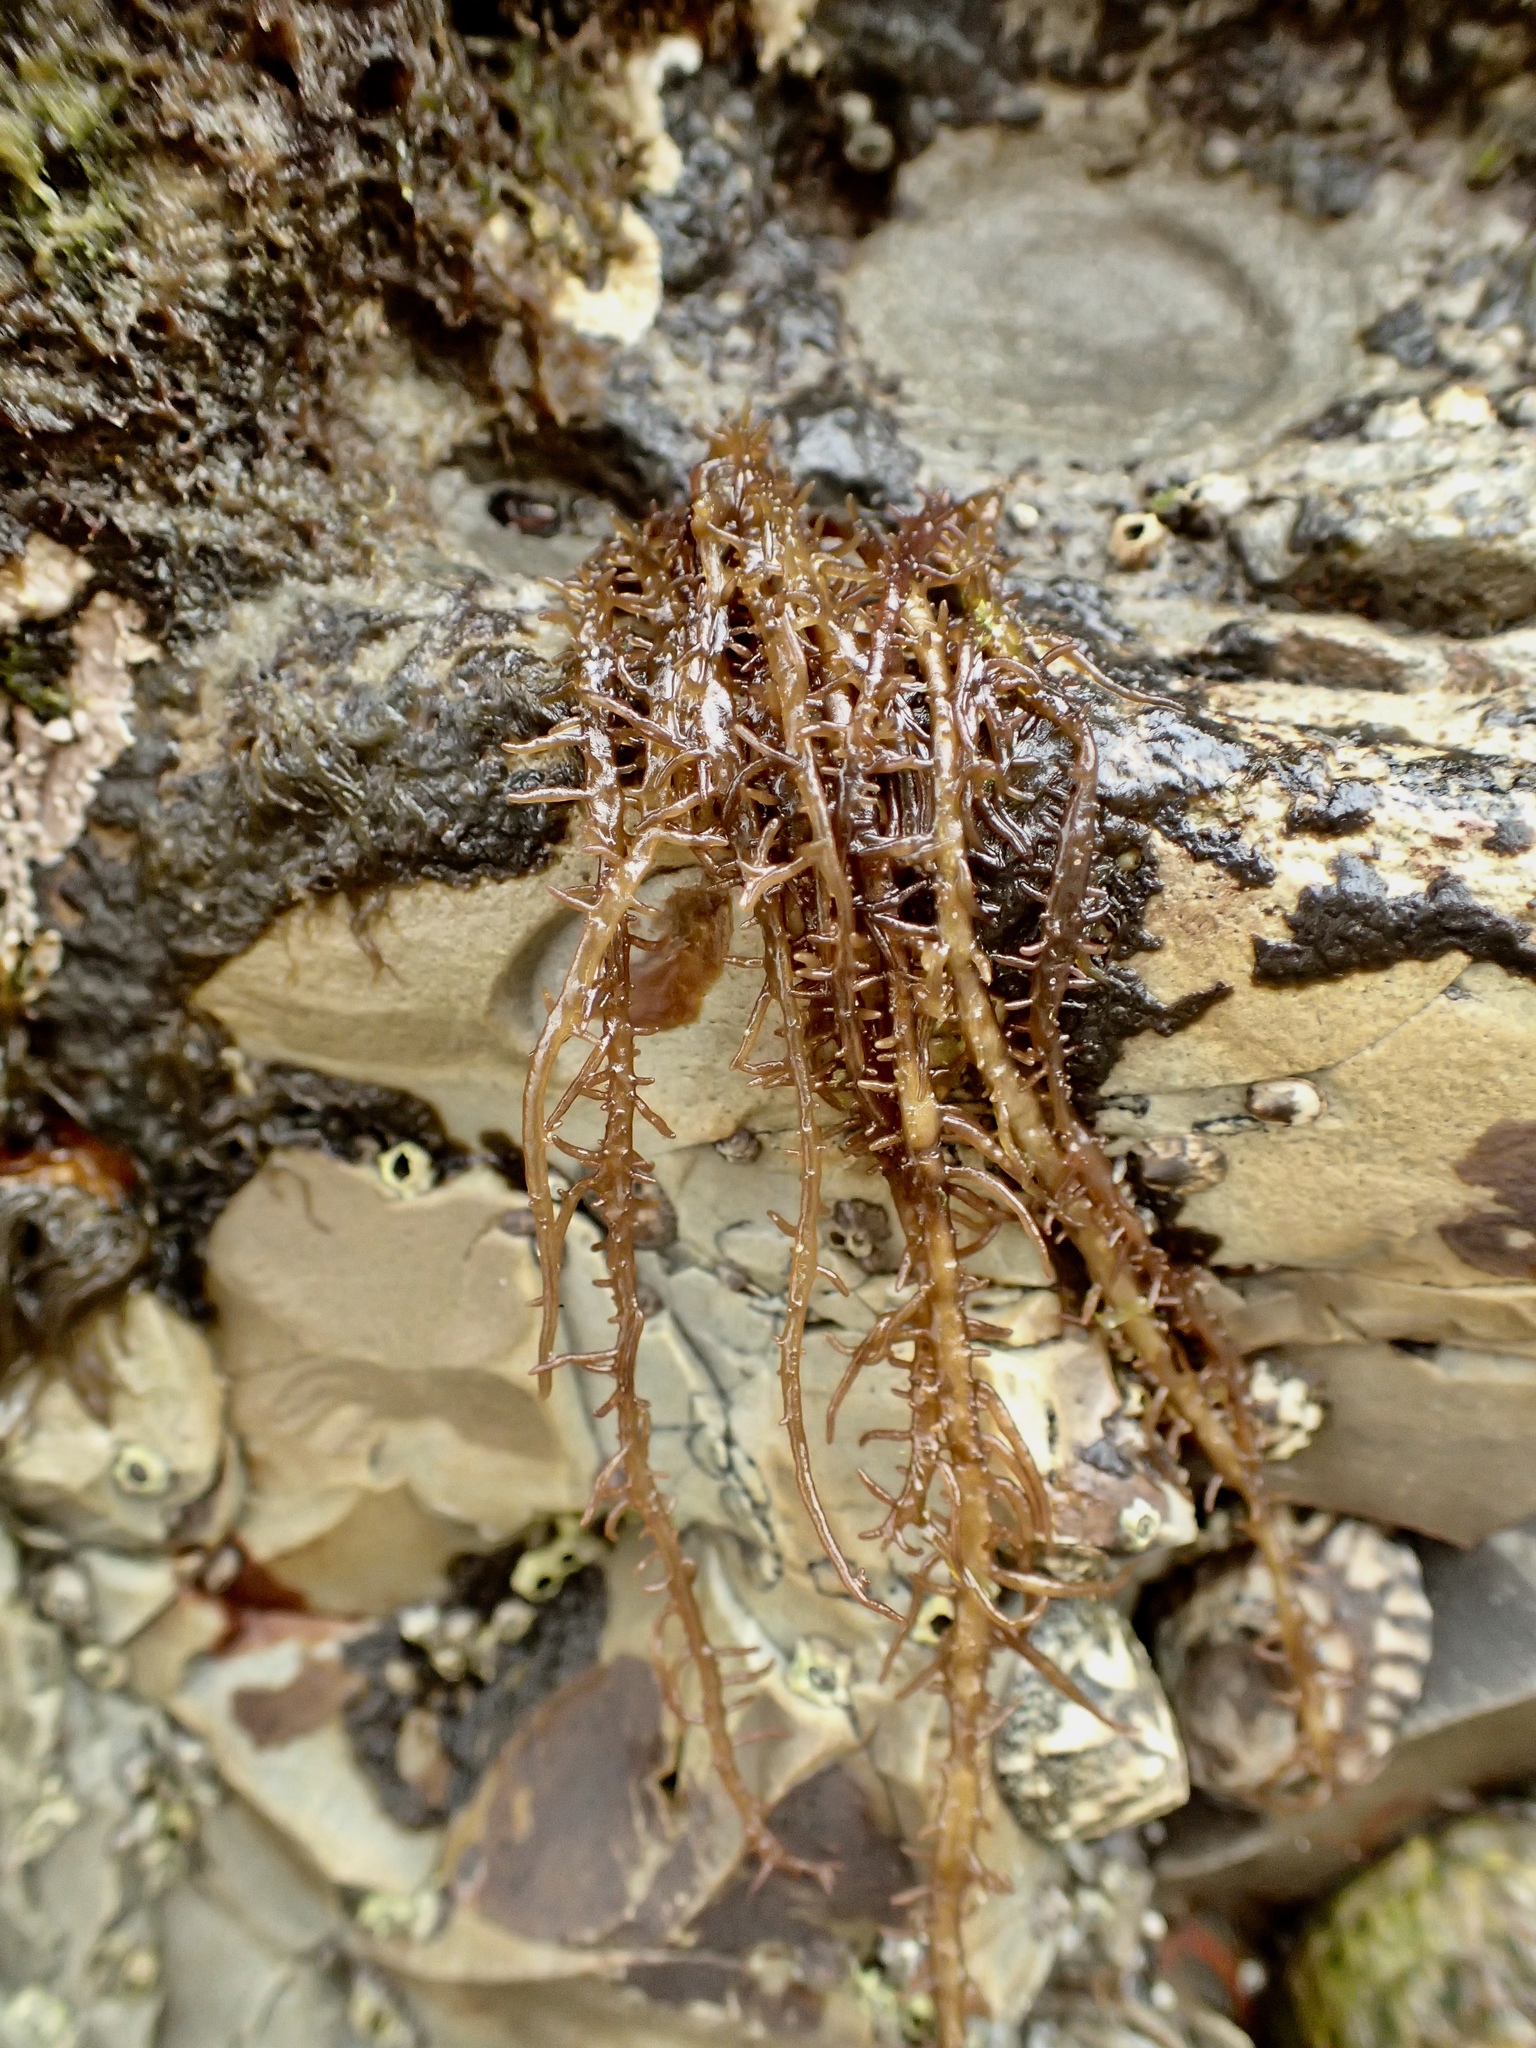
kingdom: Plantae
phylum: Rhodophyta
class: Florideophyceae
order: Nemaliales
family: Liagoraceae
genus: Cumagloia
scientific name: Cumagloia andersonii
